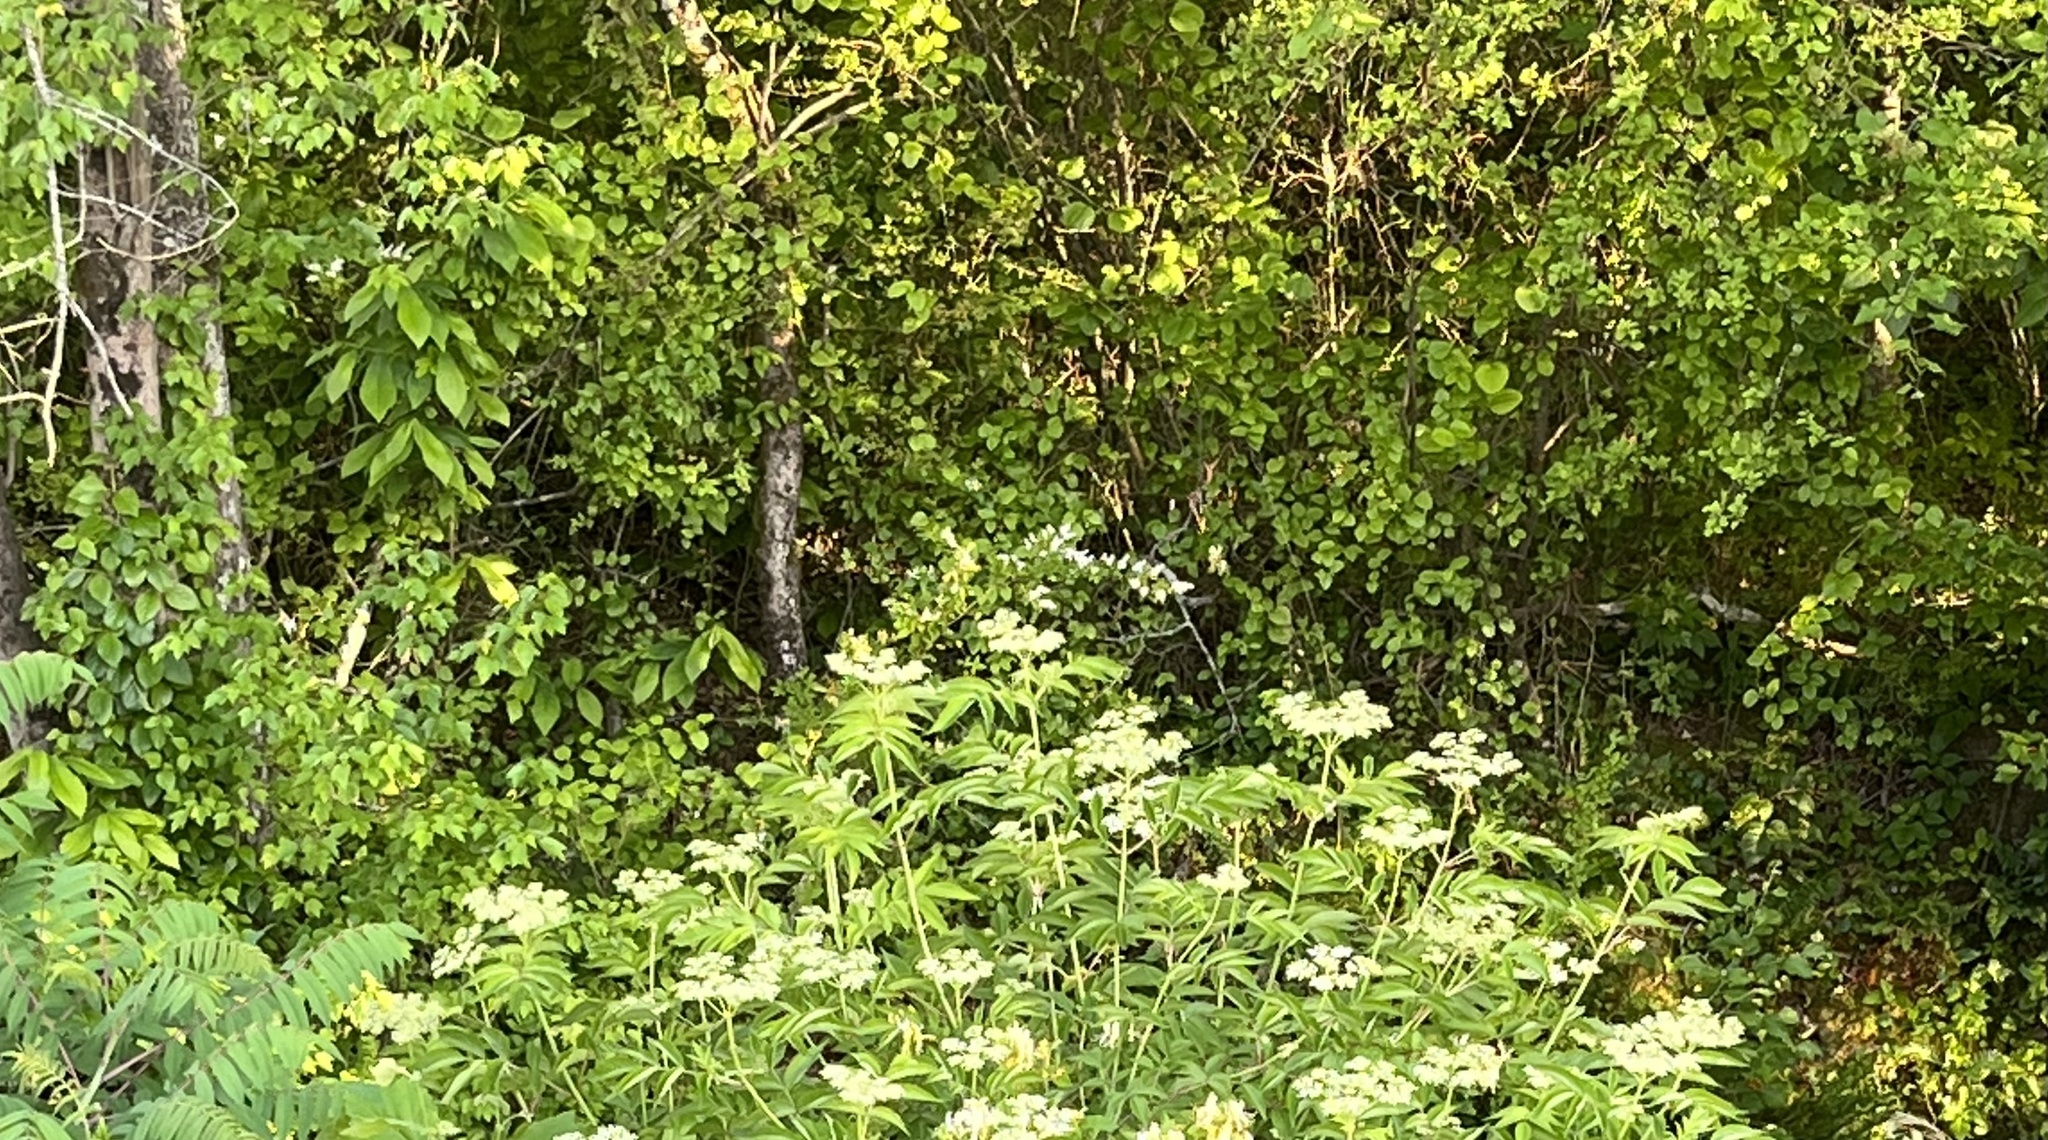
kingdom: Plantae
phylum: Tracheophyta
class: Magnoliopsida
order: Magnoliales
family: Annonaceae
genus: Asimina
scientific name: Asimina triloba
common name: Dog-banana
